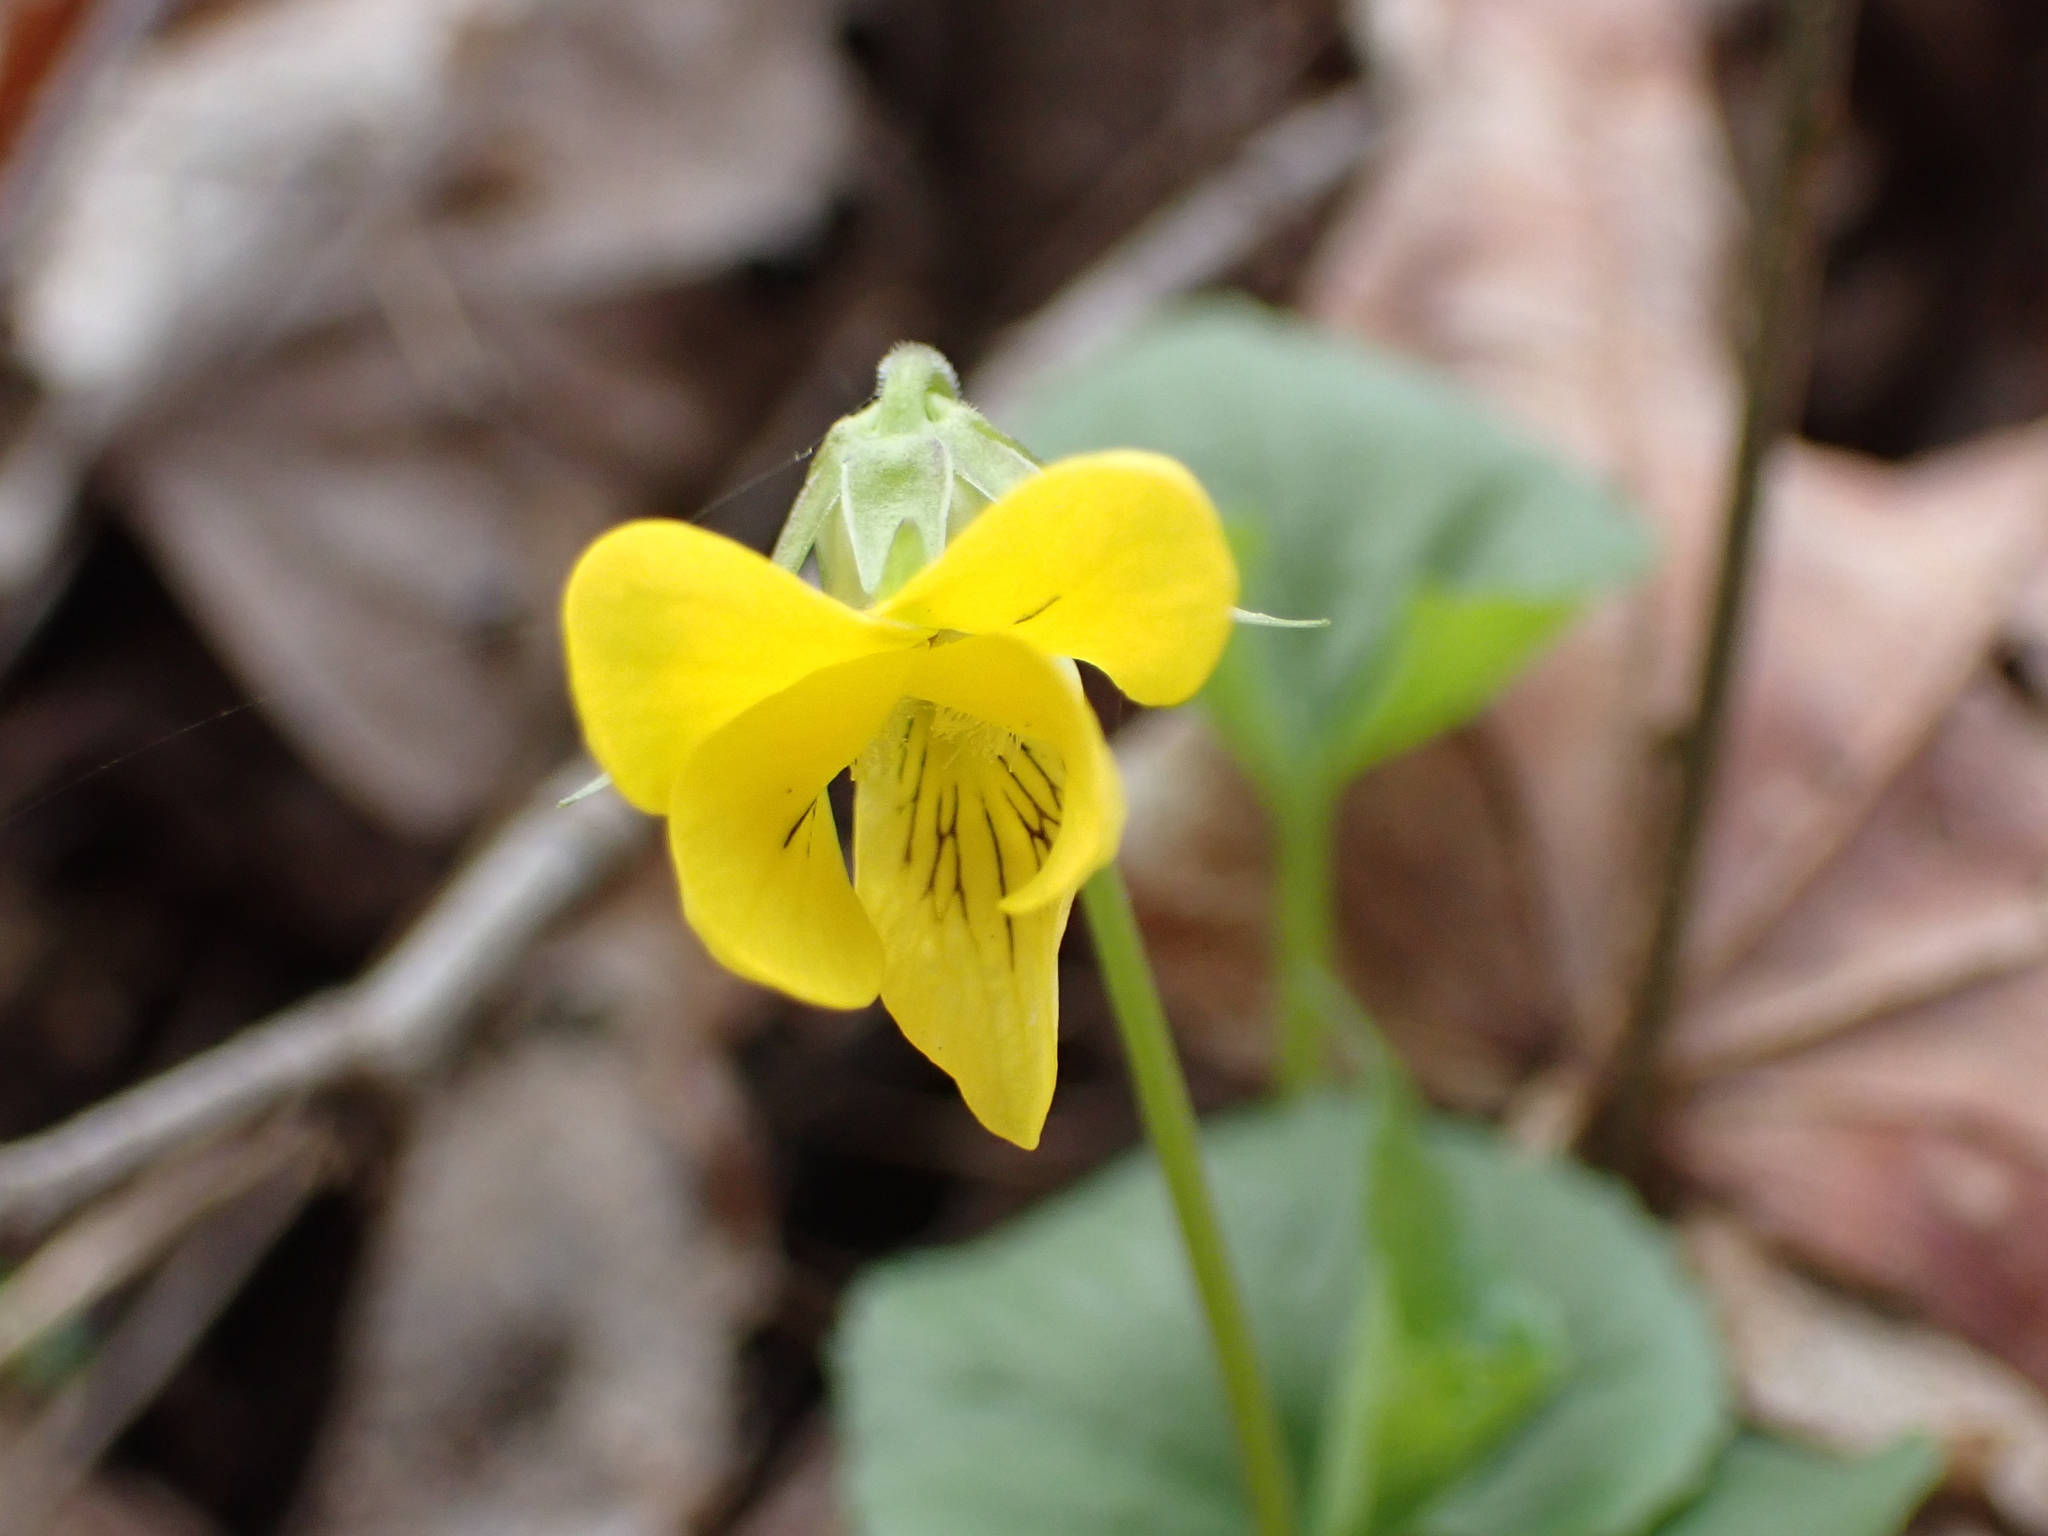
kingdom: Plantae
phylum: Tracheophyta
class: Magnoliopsida
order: Malpighiales
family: Violaceae
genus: Viola
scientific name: Viola eriocarpa
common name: Smooth yellow violet
